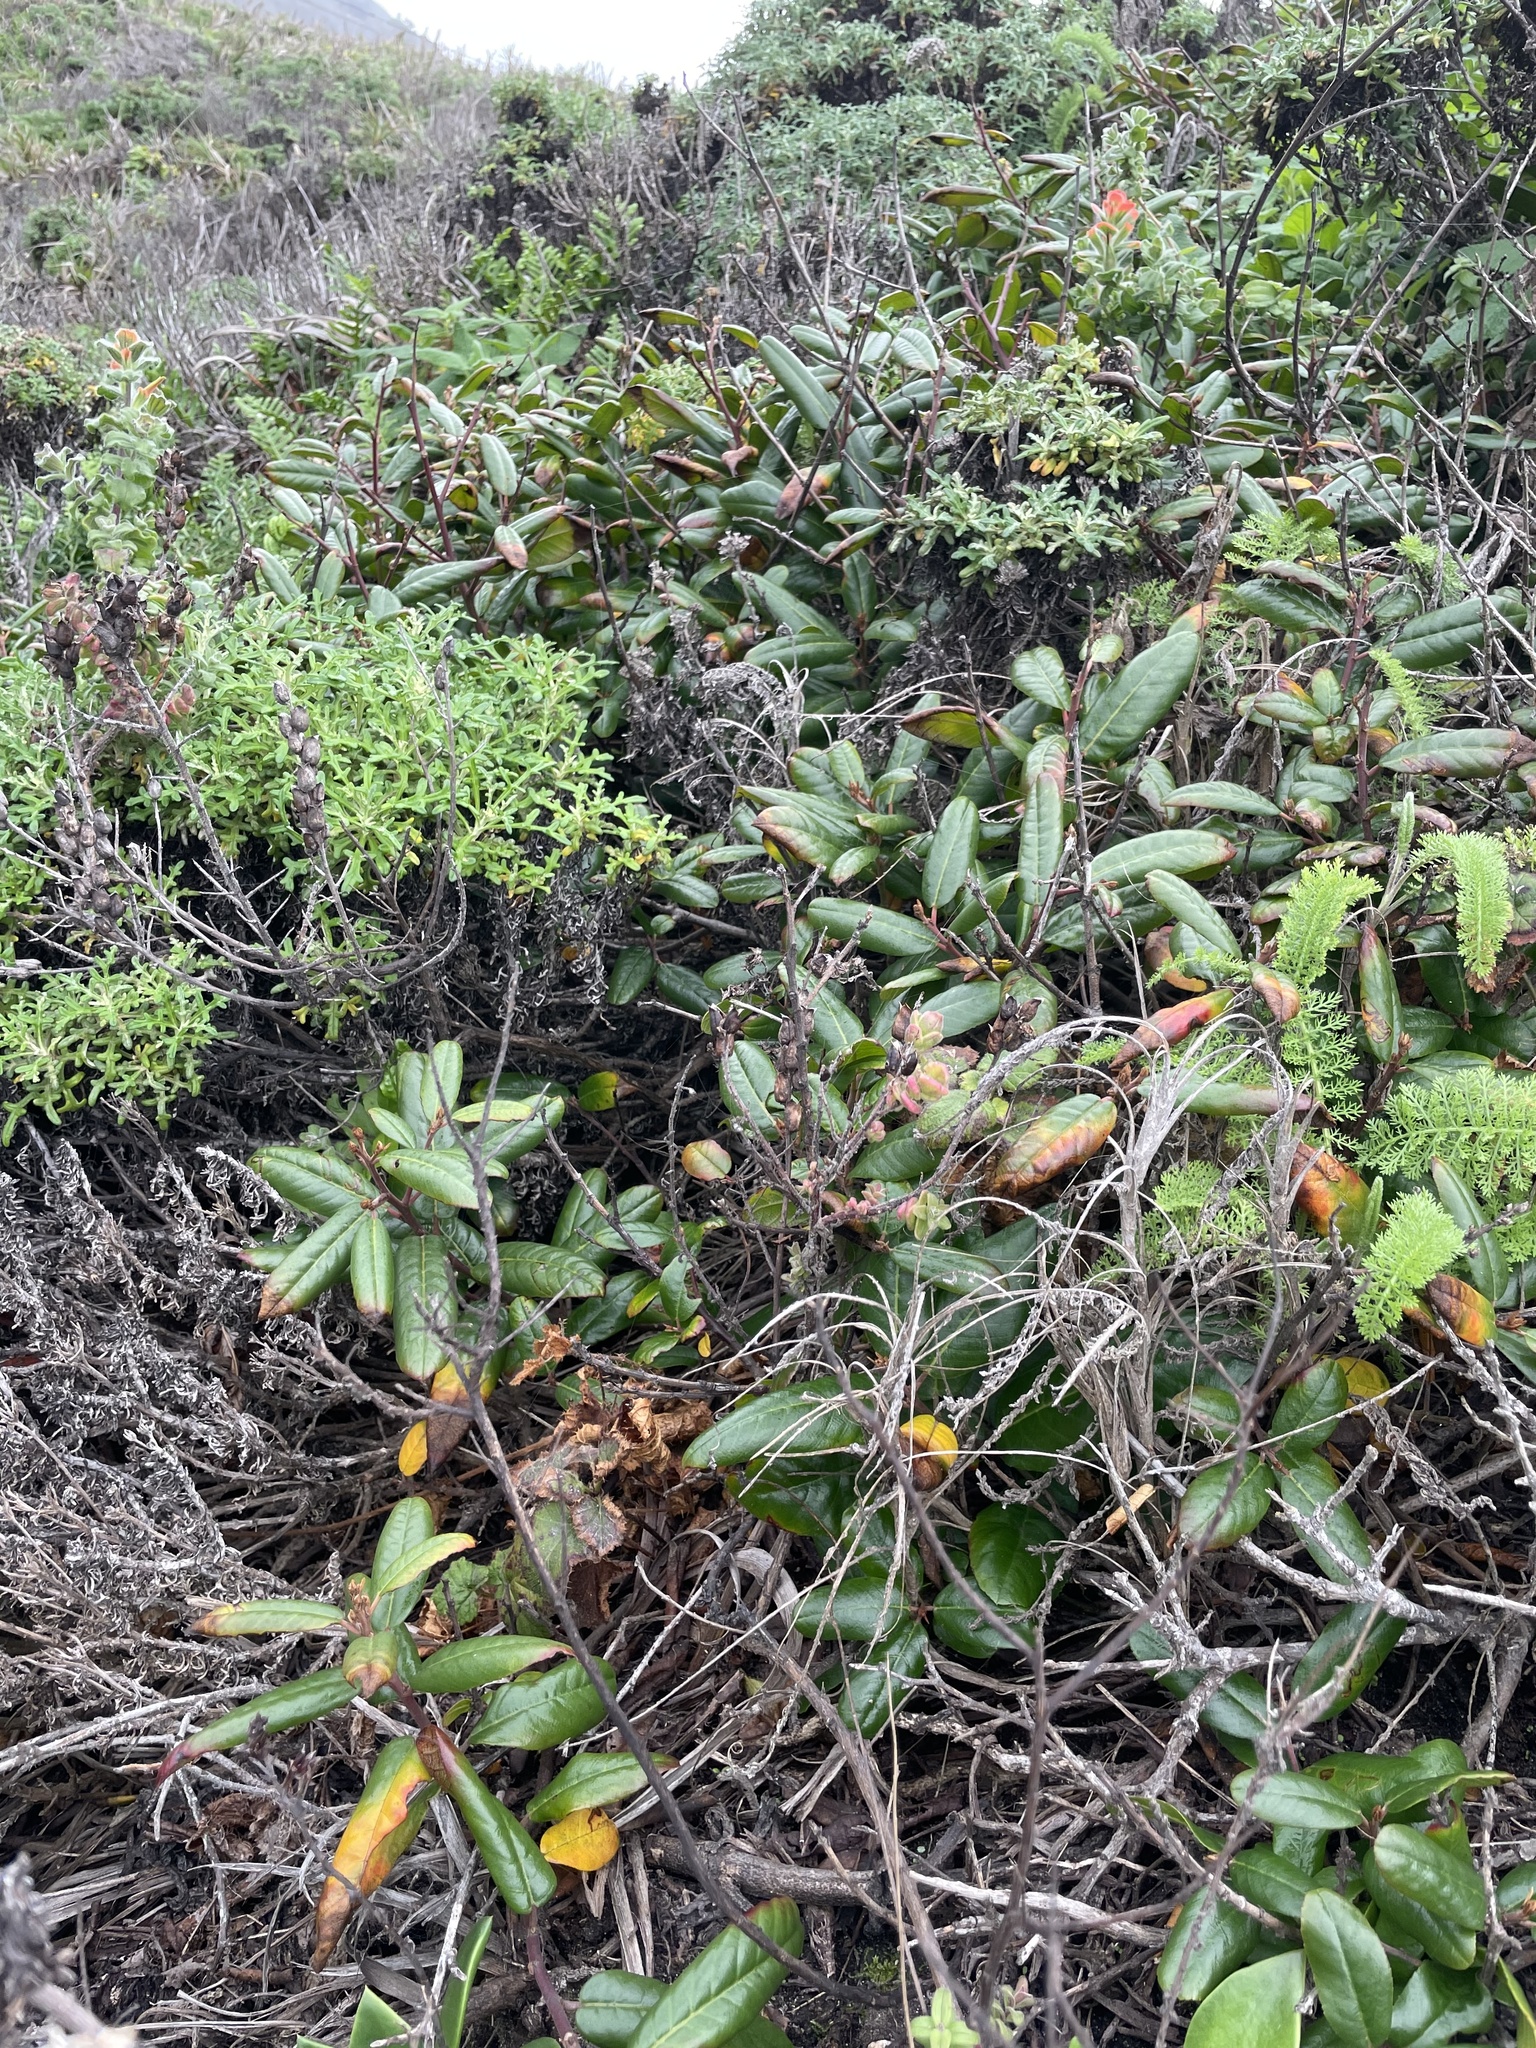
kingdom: Plantae
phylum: Tracheophyta
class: Magnoliopsida
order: Rosales
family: Rhamnaceae
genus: Frangula
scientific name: Frangula californica
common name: California buckthorn
